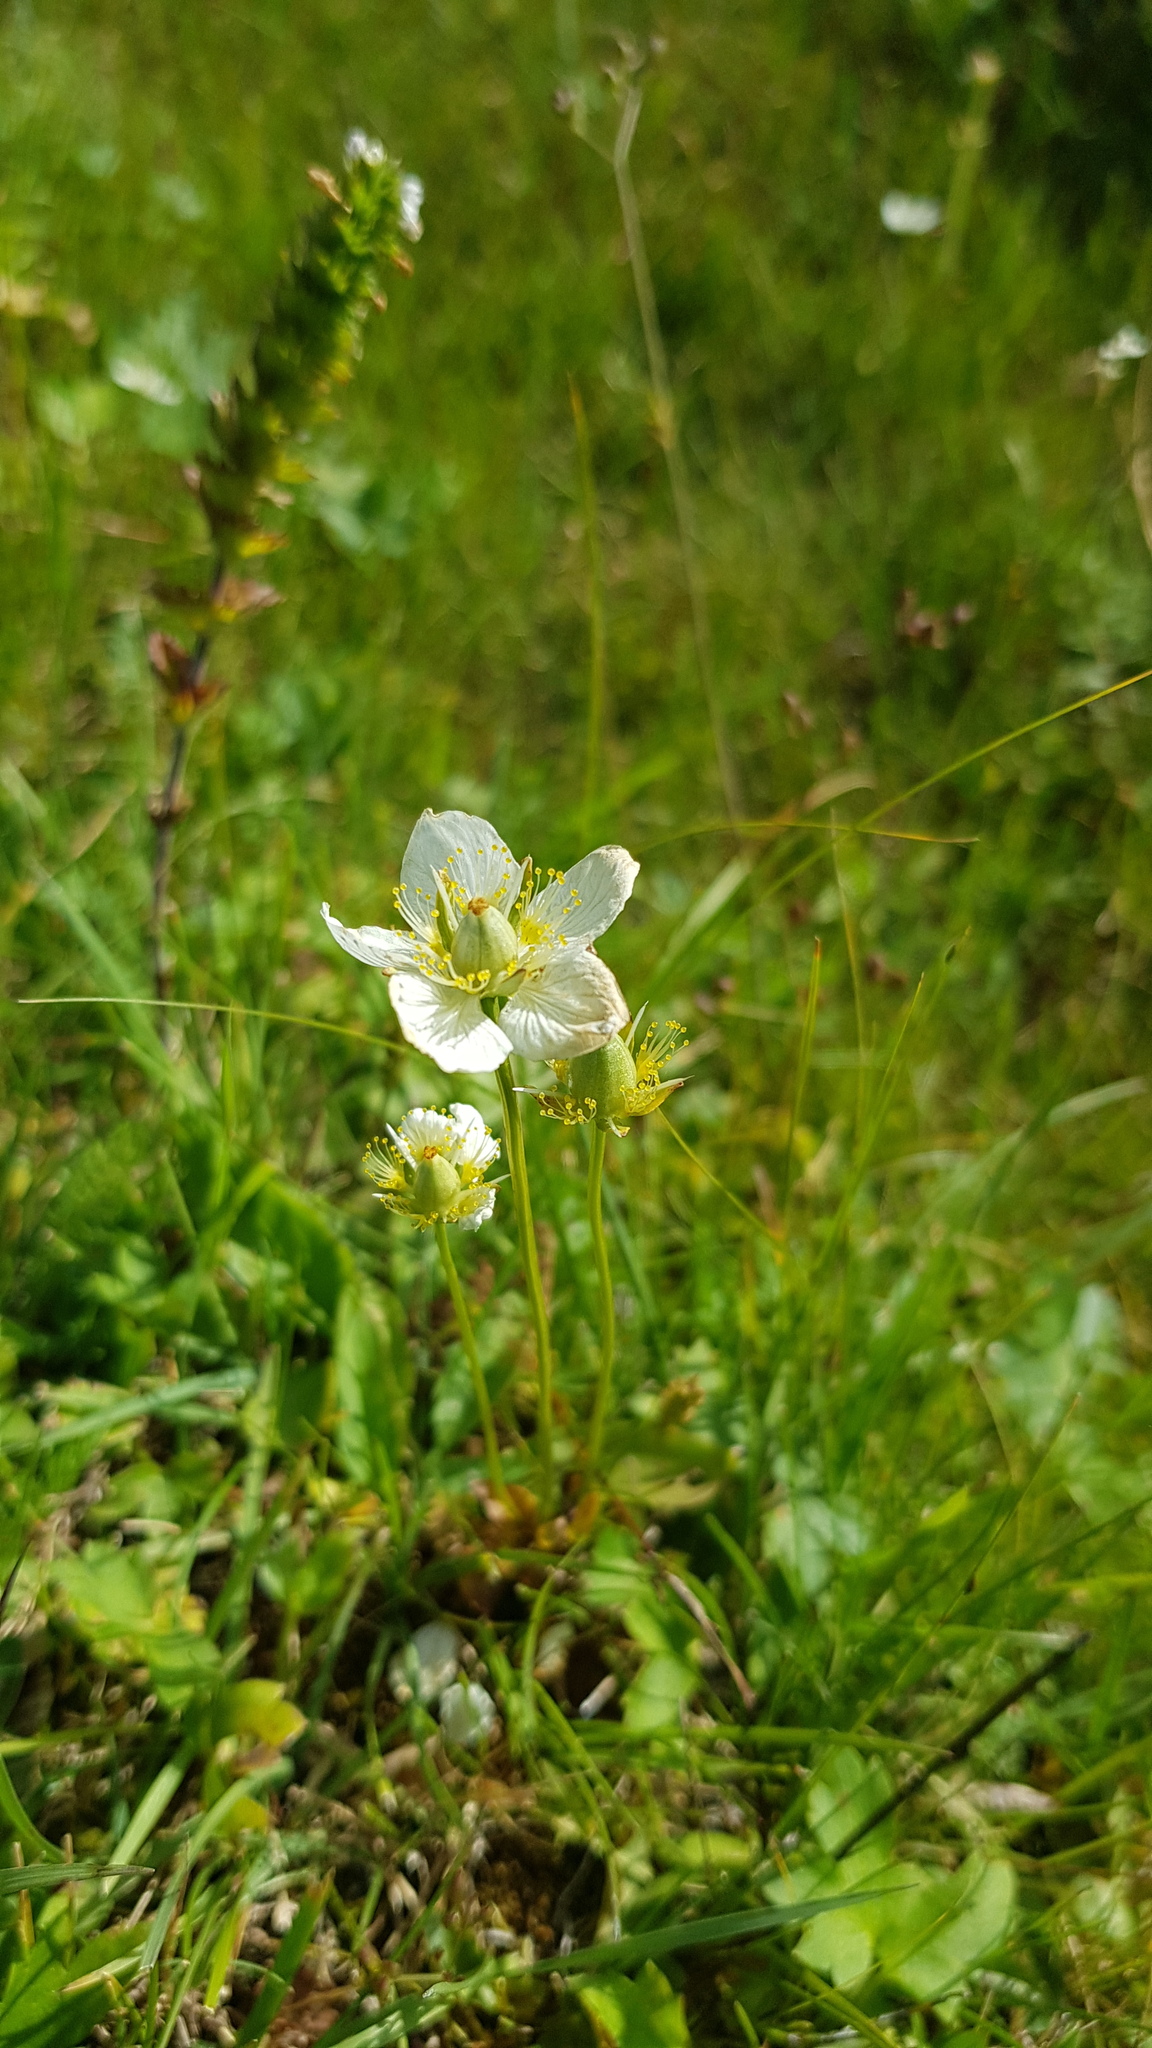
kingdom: Plantae
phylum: Tracheophyta
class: Magnoliopsida
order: Celastrales
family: Parnassiaceae
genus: Parnassia
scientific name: Parnassia palustris
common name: Grass-of-parnassus
